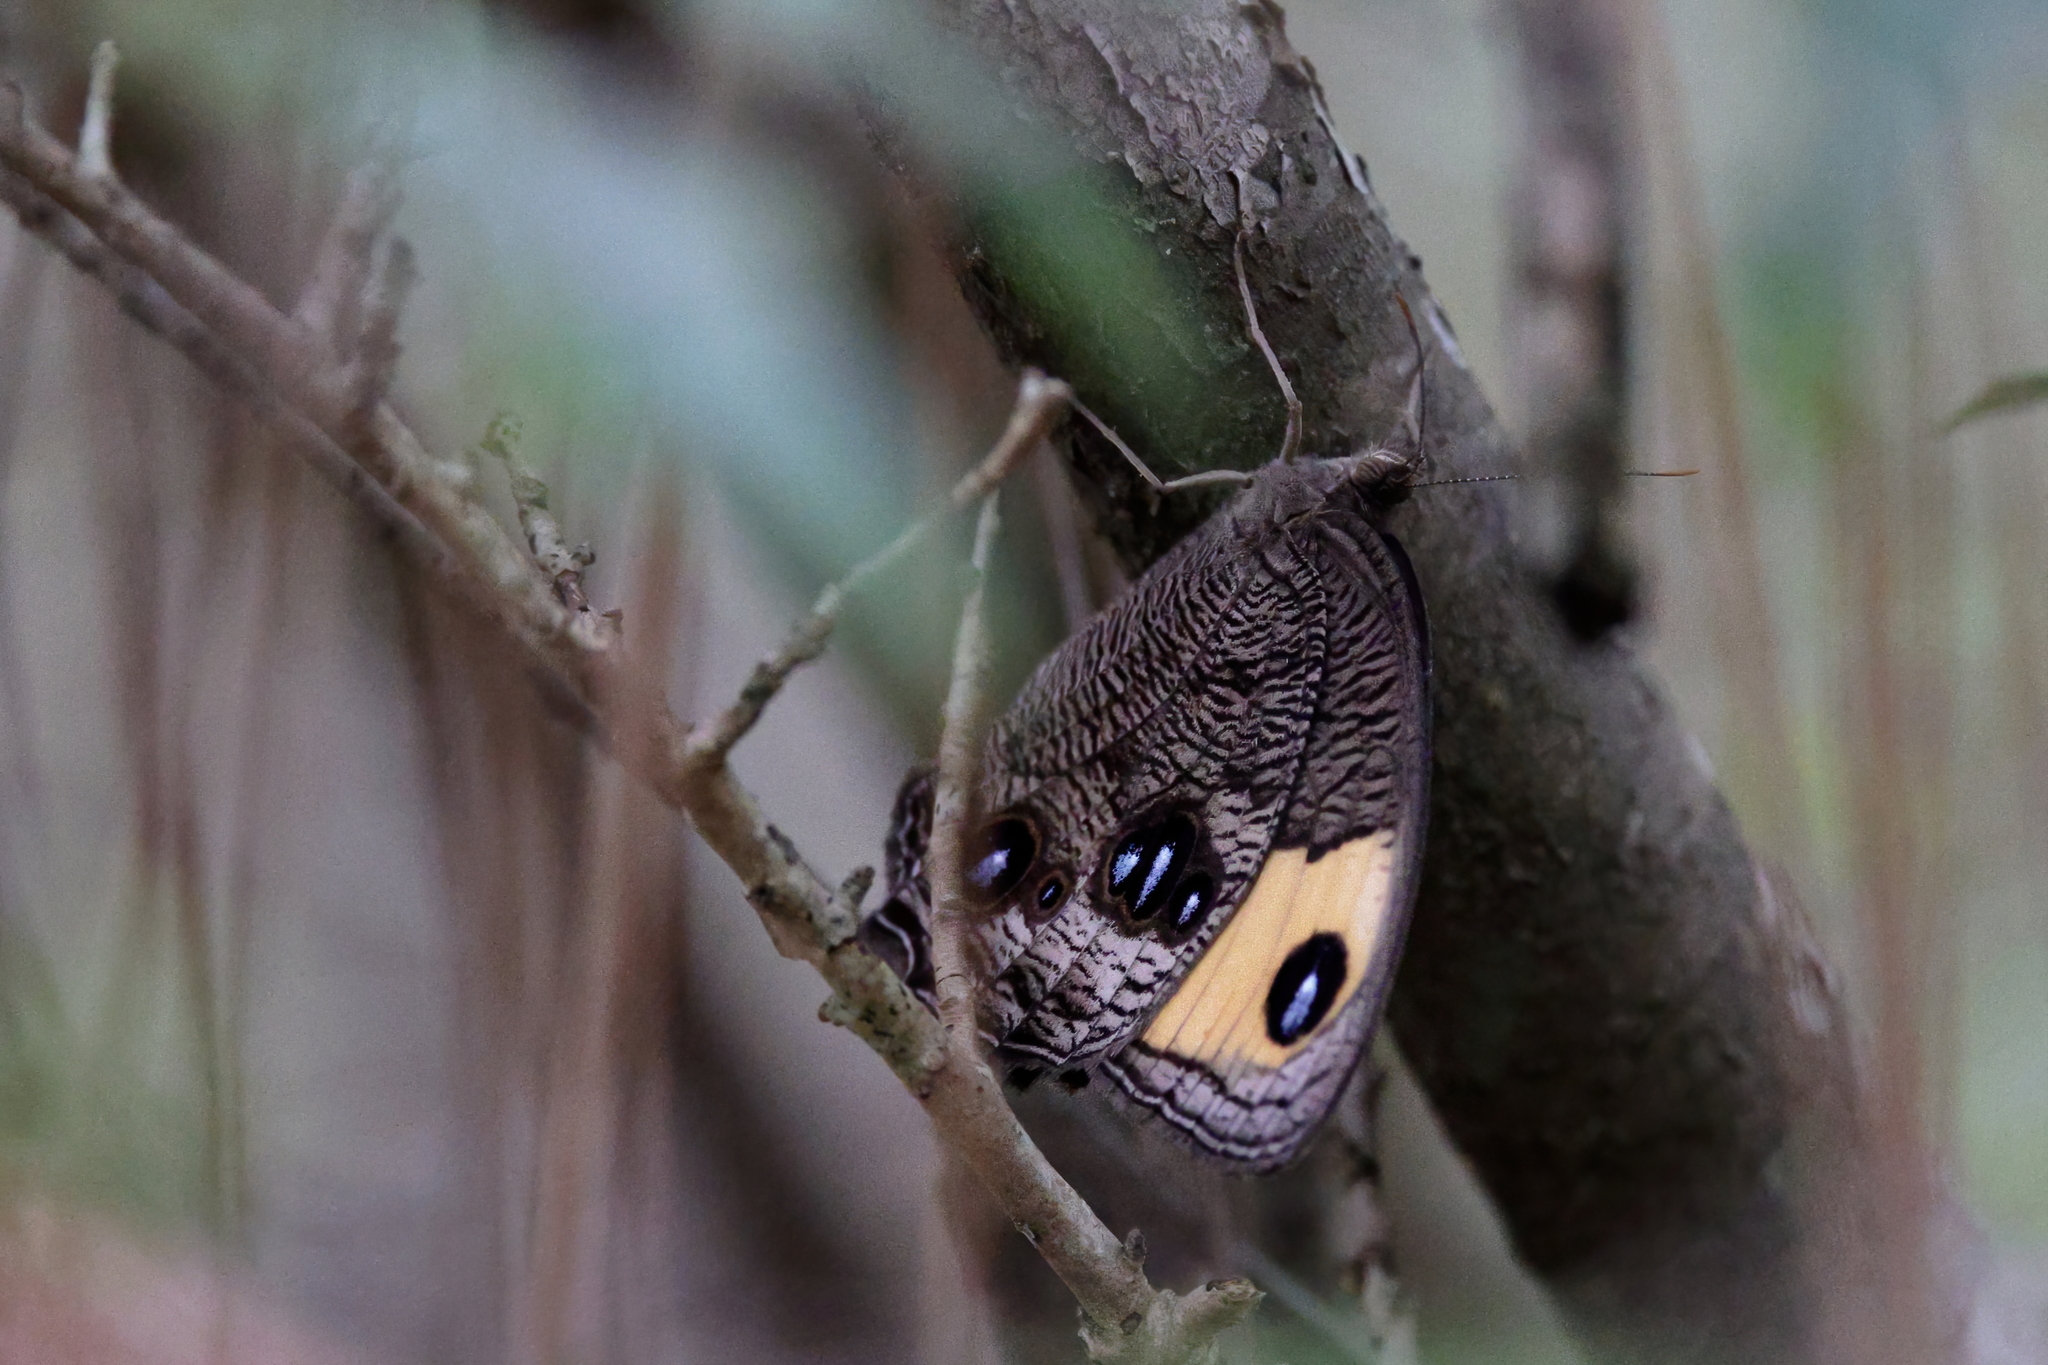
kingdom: Animalia
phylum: Arthropoda
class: Insecta
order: Lepidoptera
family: Nymphalidae
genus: Cercyonis
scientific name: Cercyonis pegala
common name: Common wood-nymph
